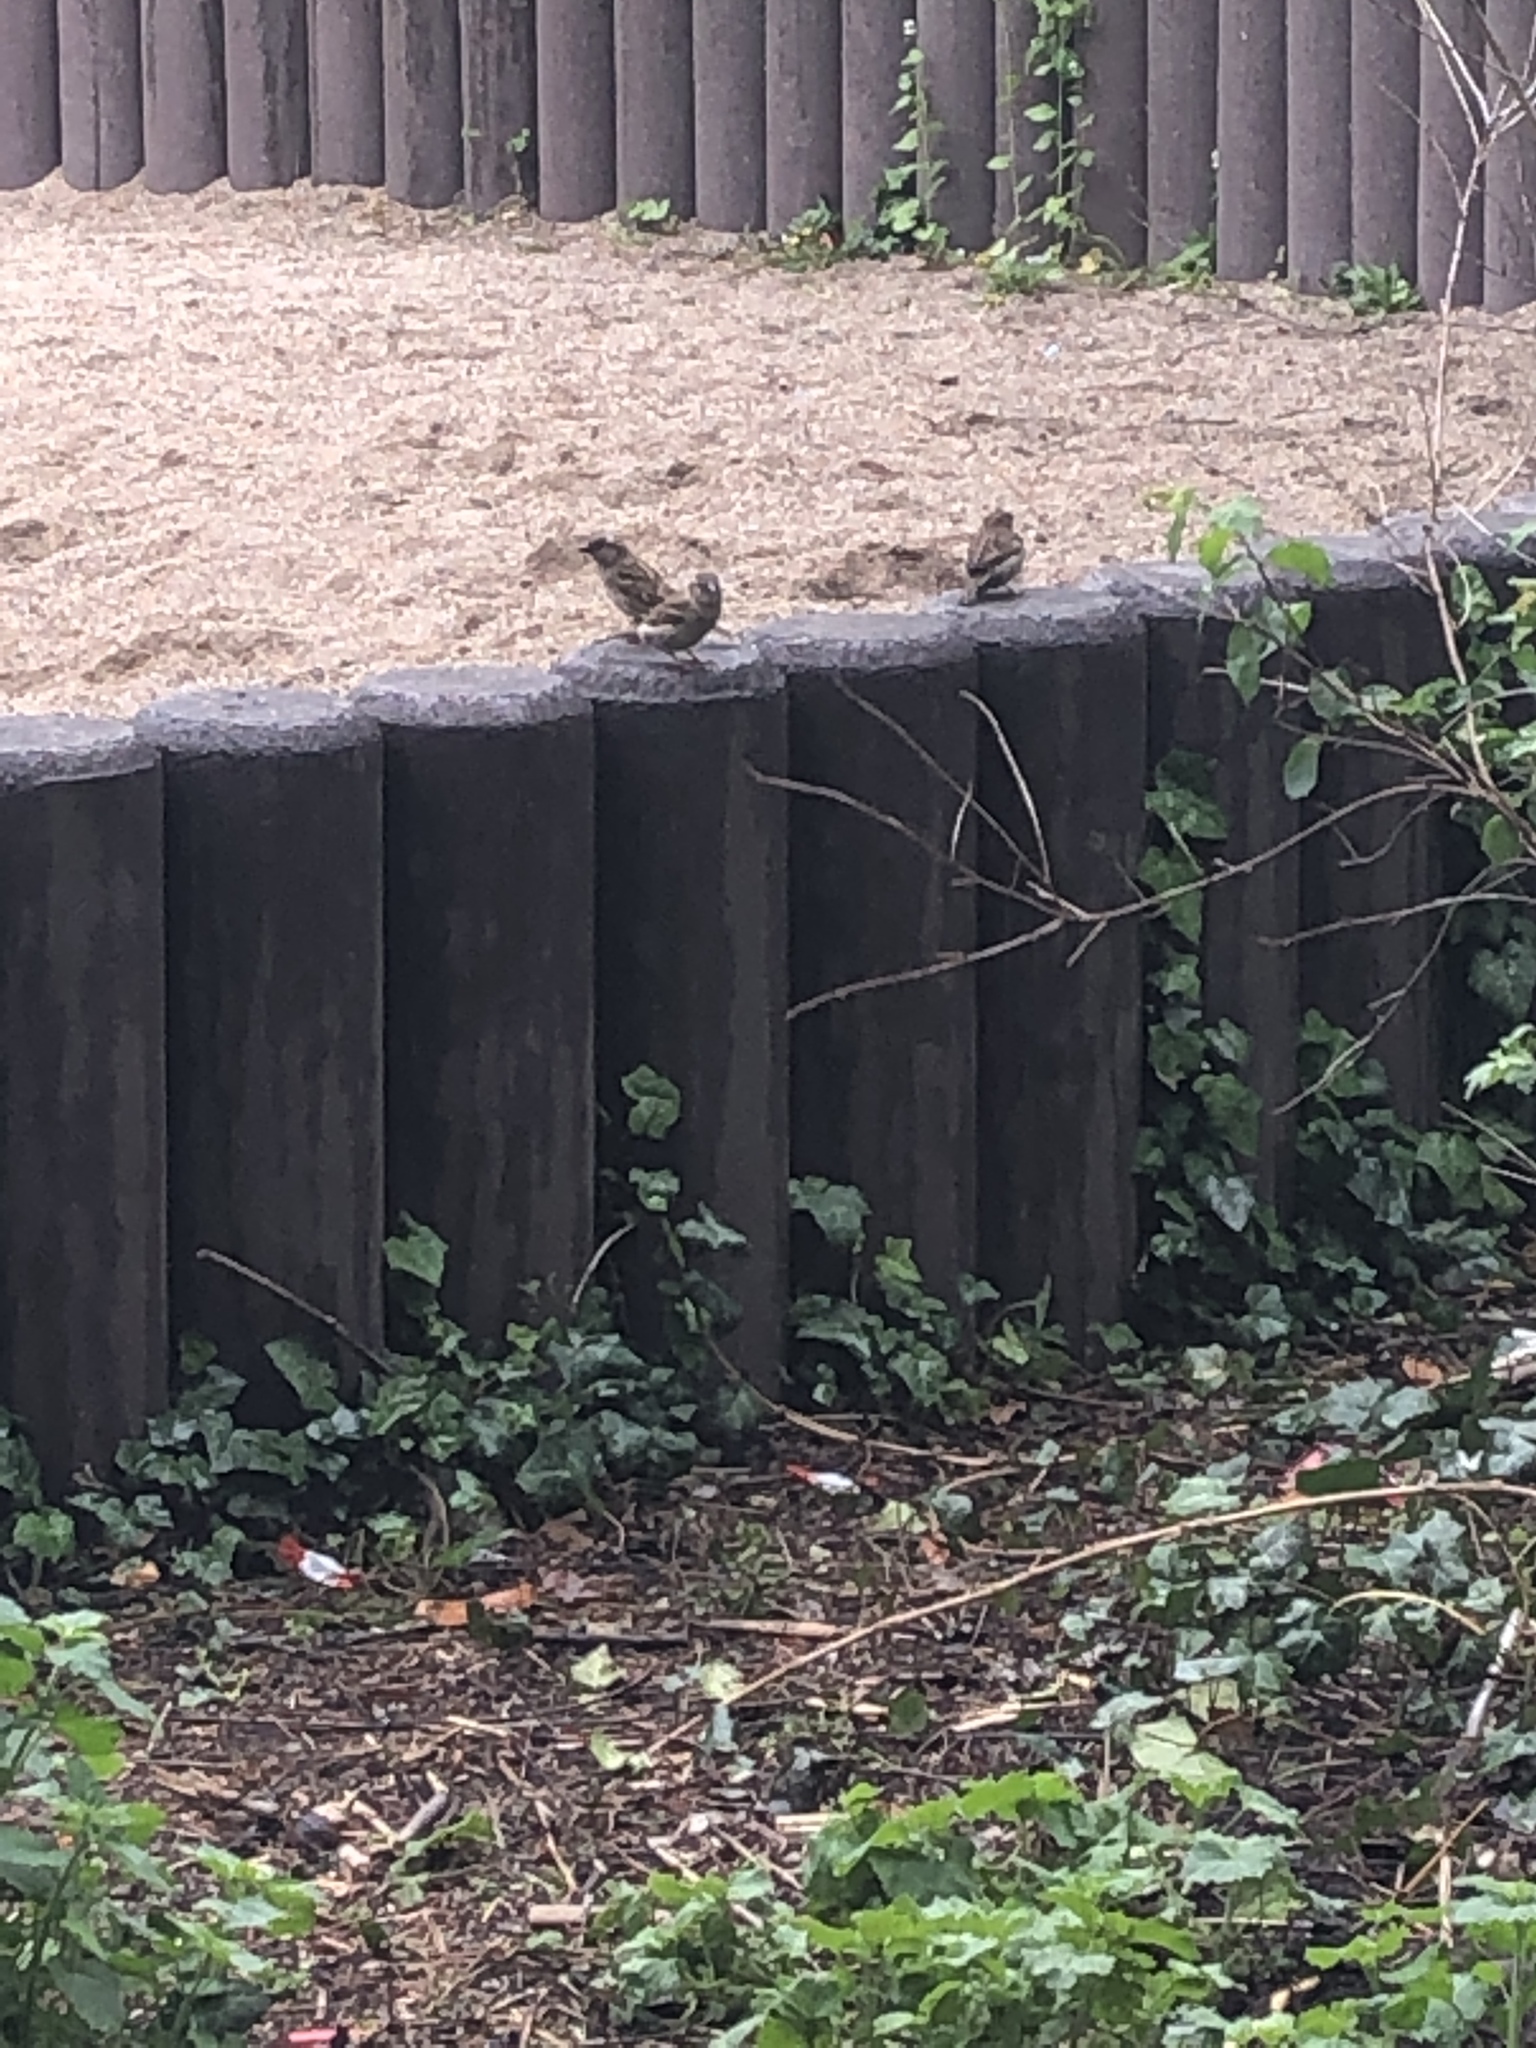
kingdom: Animalia
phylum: Chordata
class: Aves
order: Passeriformes
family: Passeridae
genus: Passer
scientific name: Passer domesticus
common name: House sparrow
